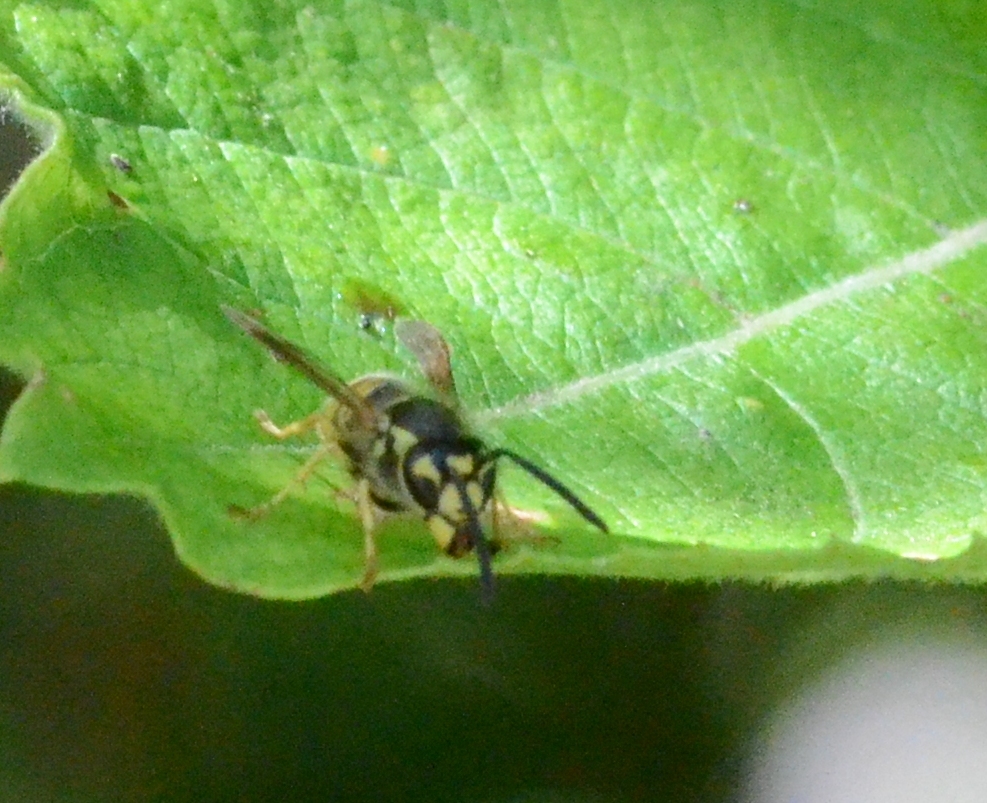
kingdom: Animalia
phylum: Arthropoda
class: Insecta
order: Hymenoptera
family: Vespidae
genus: Vespula
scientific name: Vespula vulgaris
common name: Common wasp
